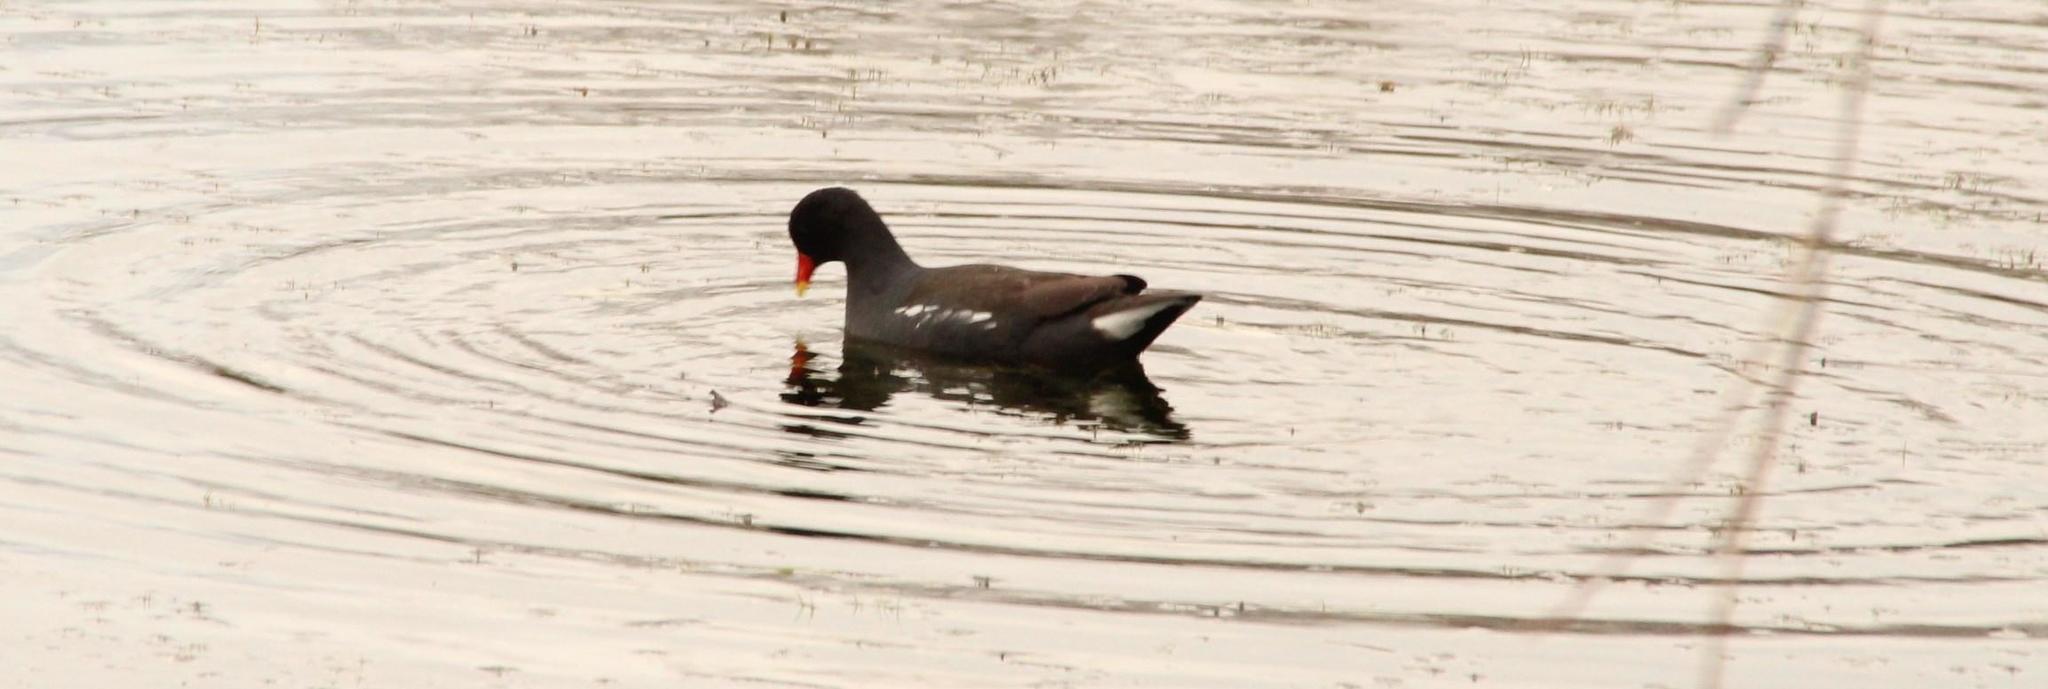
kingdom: Animalia
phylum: Chordata
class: Aves
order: Gruiformes
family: Rallidae
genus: Gallinula
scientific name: Gallinula chloropus
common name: Common moorhen
